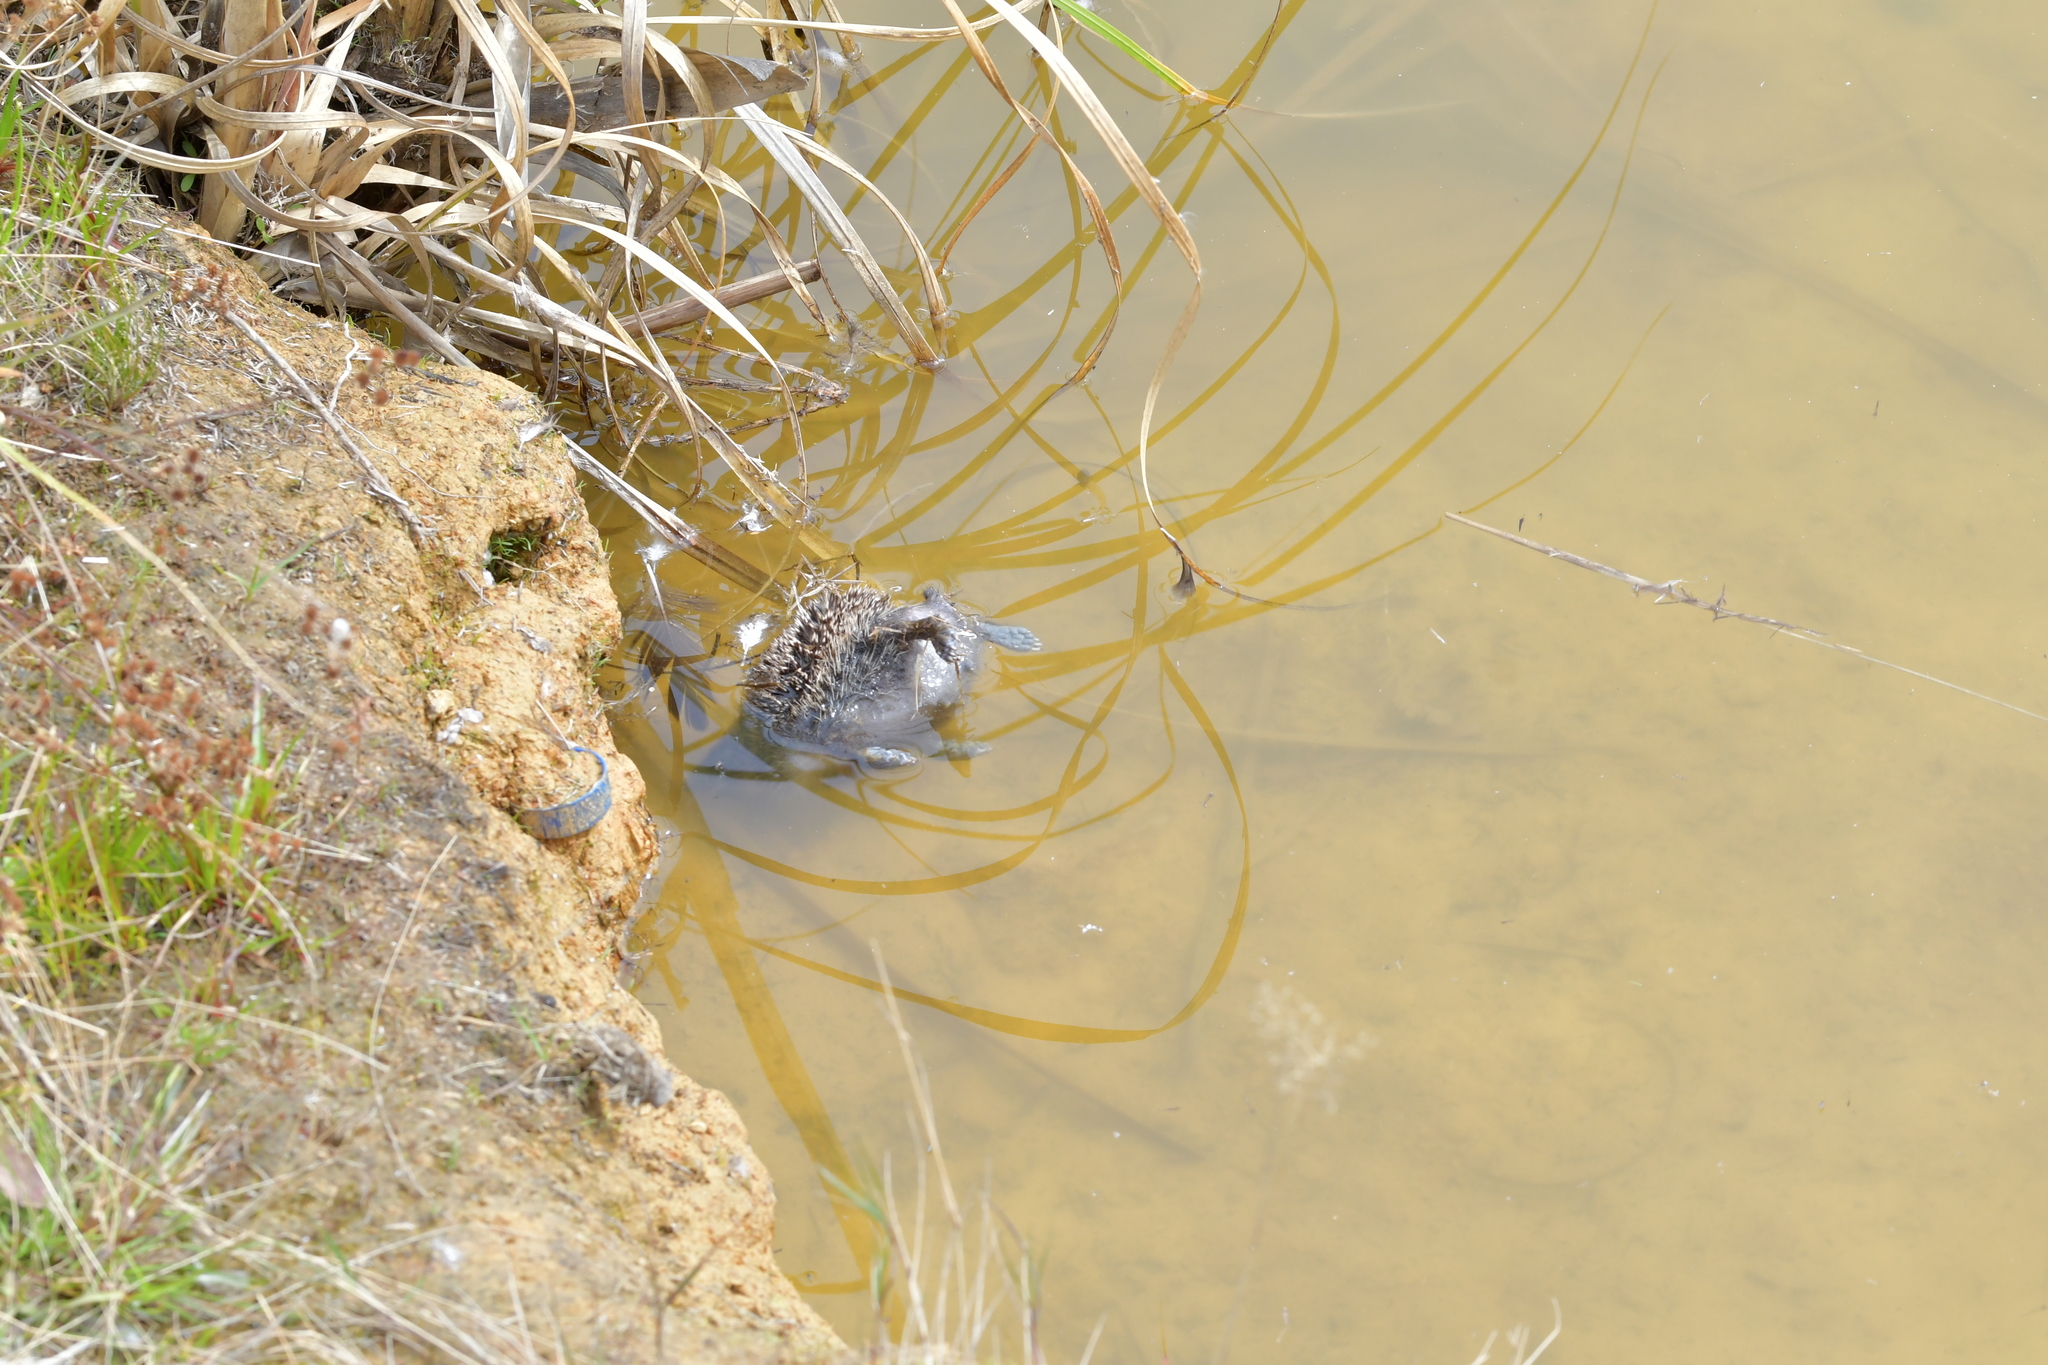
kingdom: Animalia
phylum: Chordata
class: Mammalia
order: Erinaceomorpha
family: Erinaceidae
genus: Erinaceus
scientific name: Erinaceus europaeus
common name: West european hedgehog
